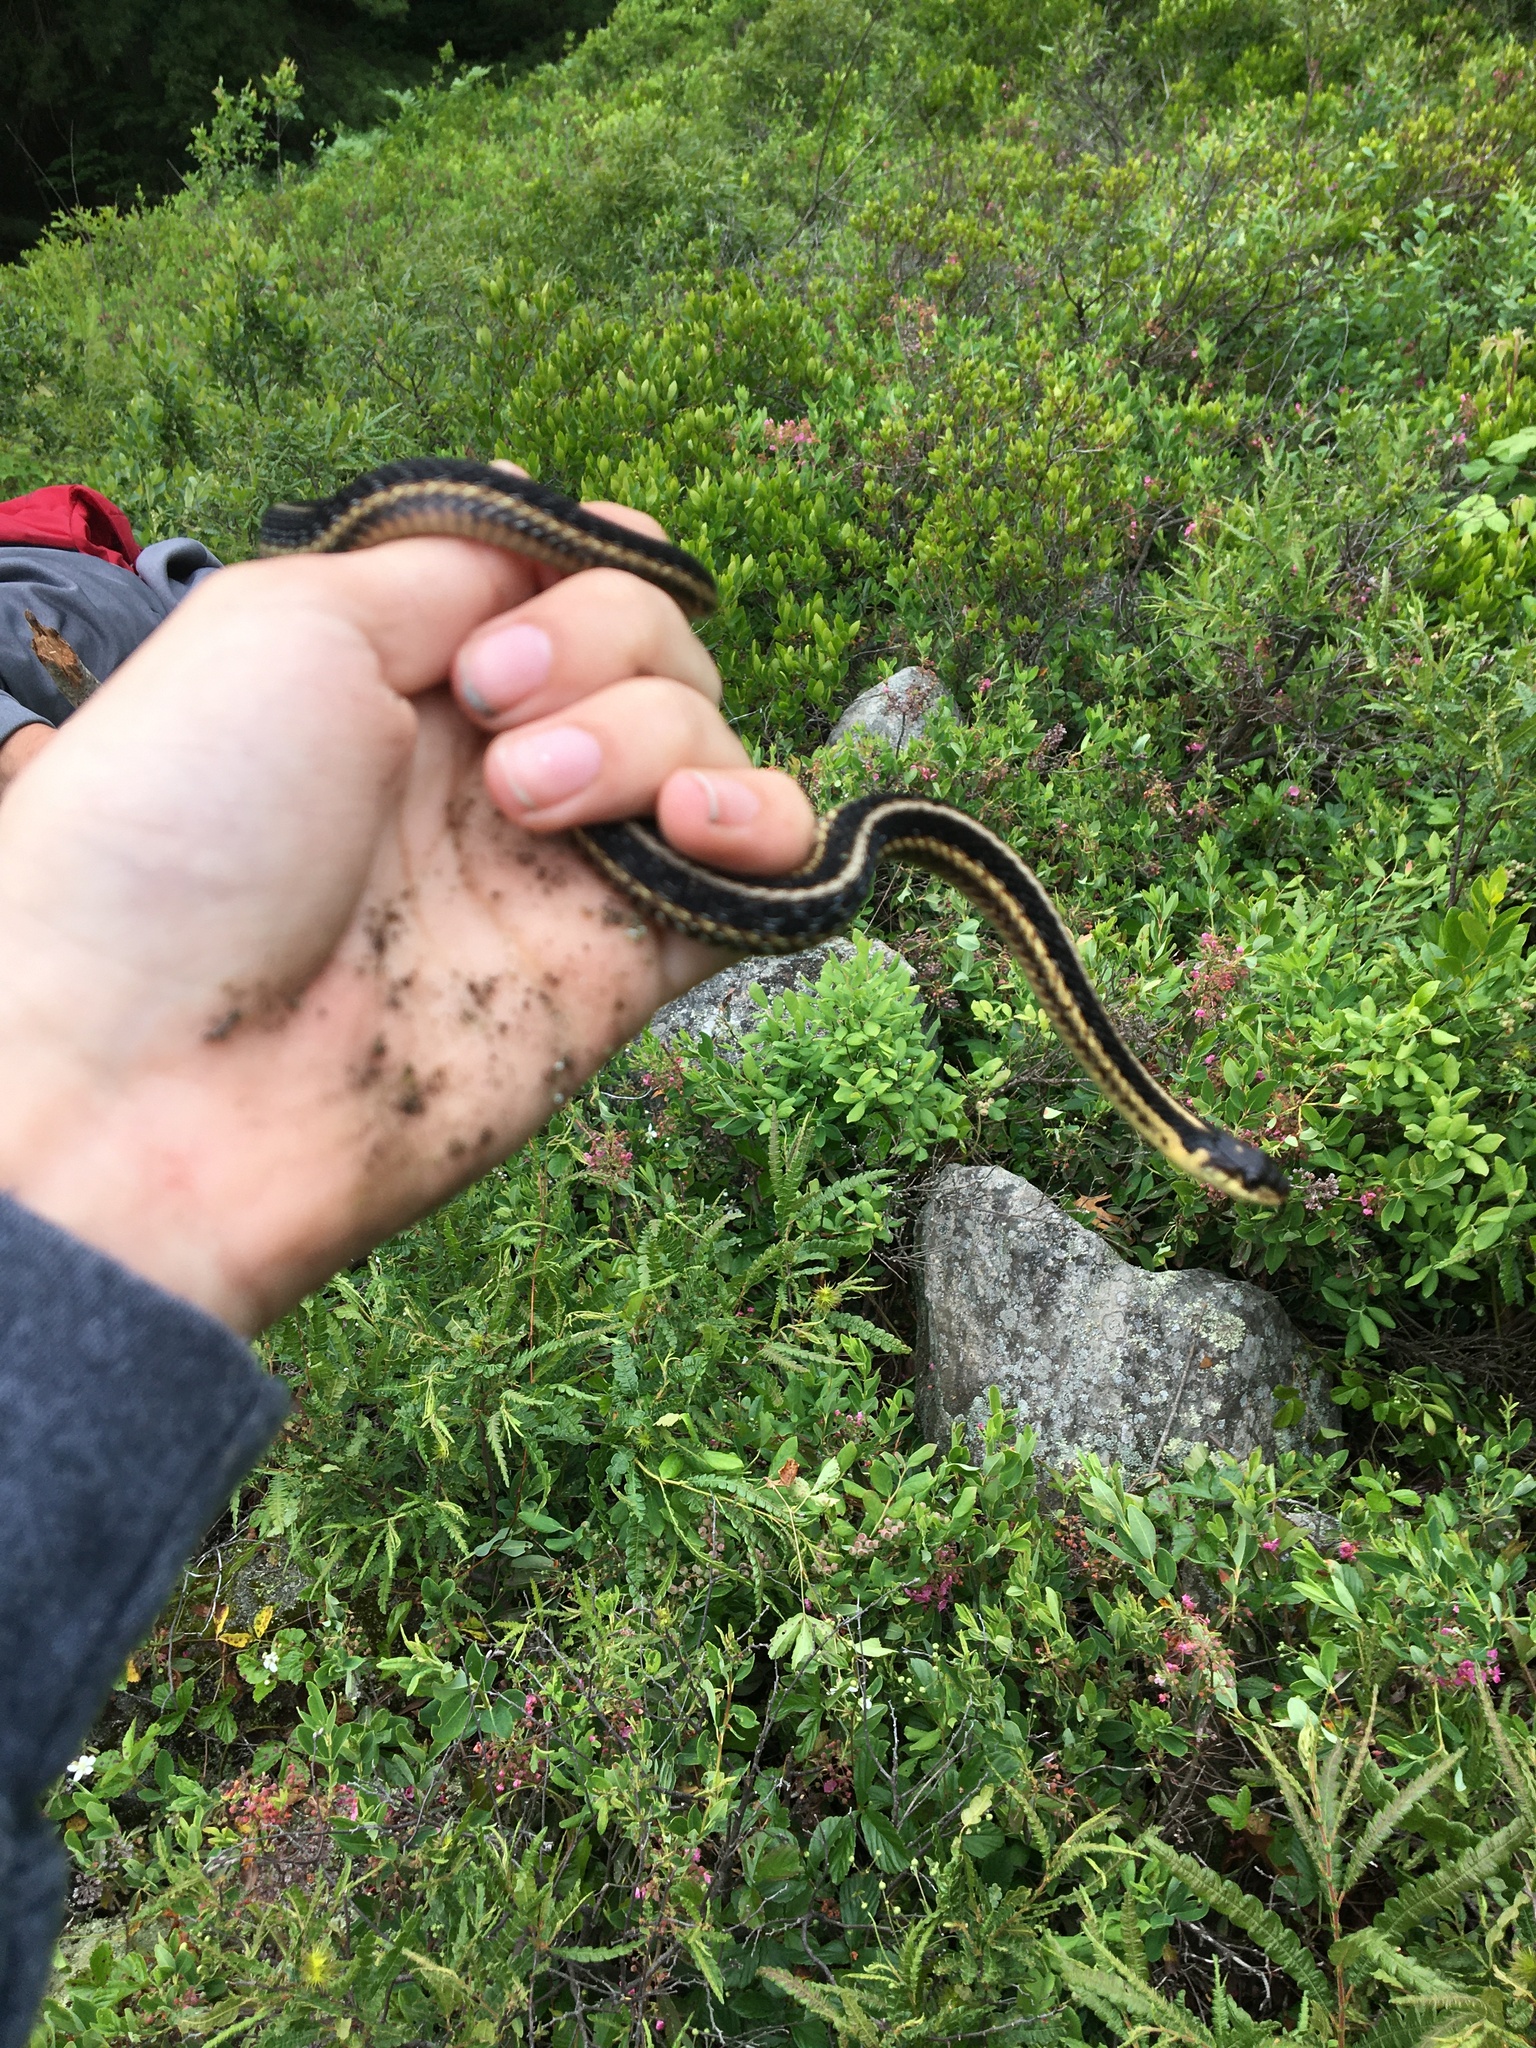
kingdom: Animalia
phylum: Chordata
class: Squamata
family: Colubridae
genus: Thamnophis
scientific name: Thamnophis sirtalis
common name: Common garter snake
